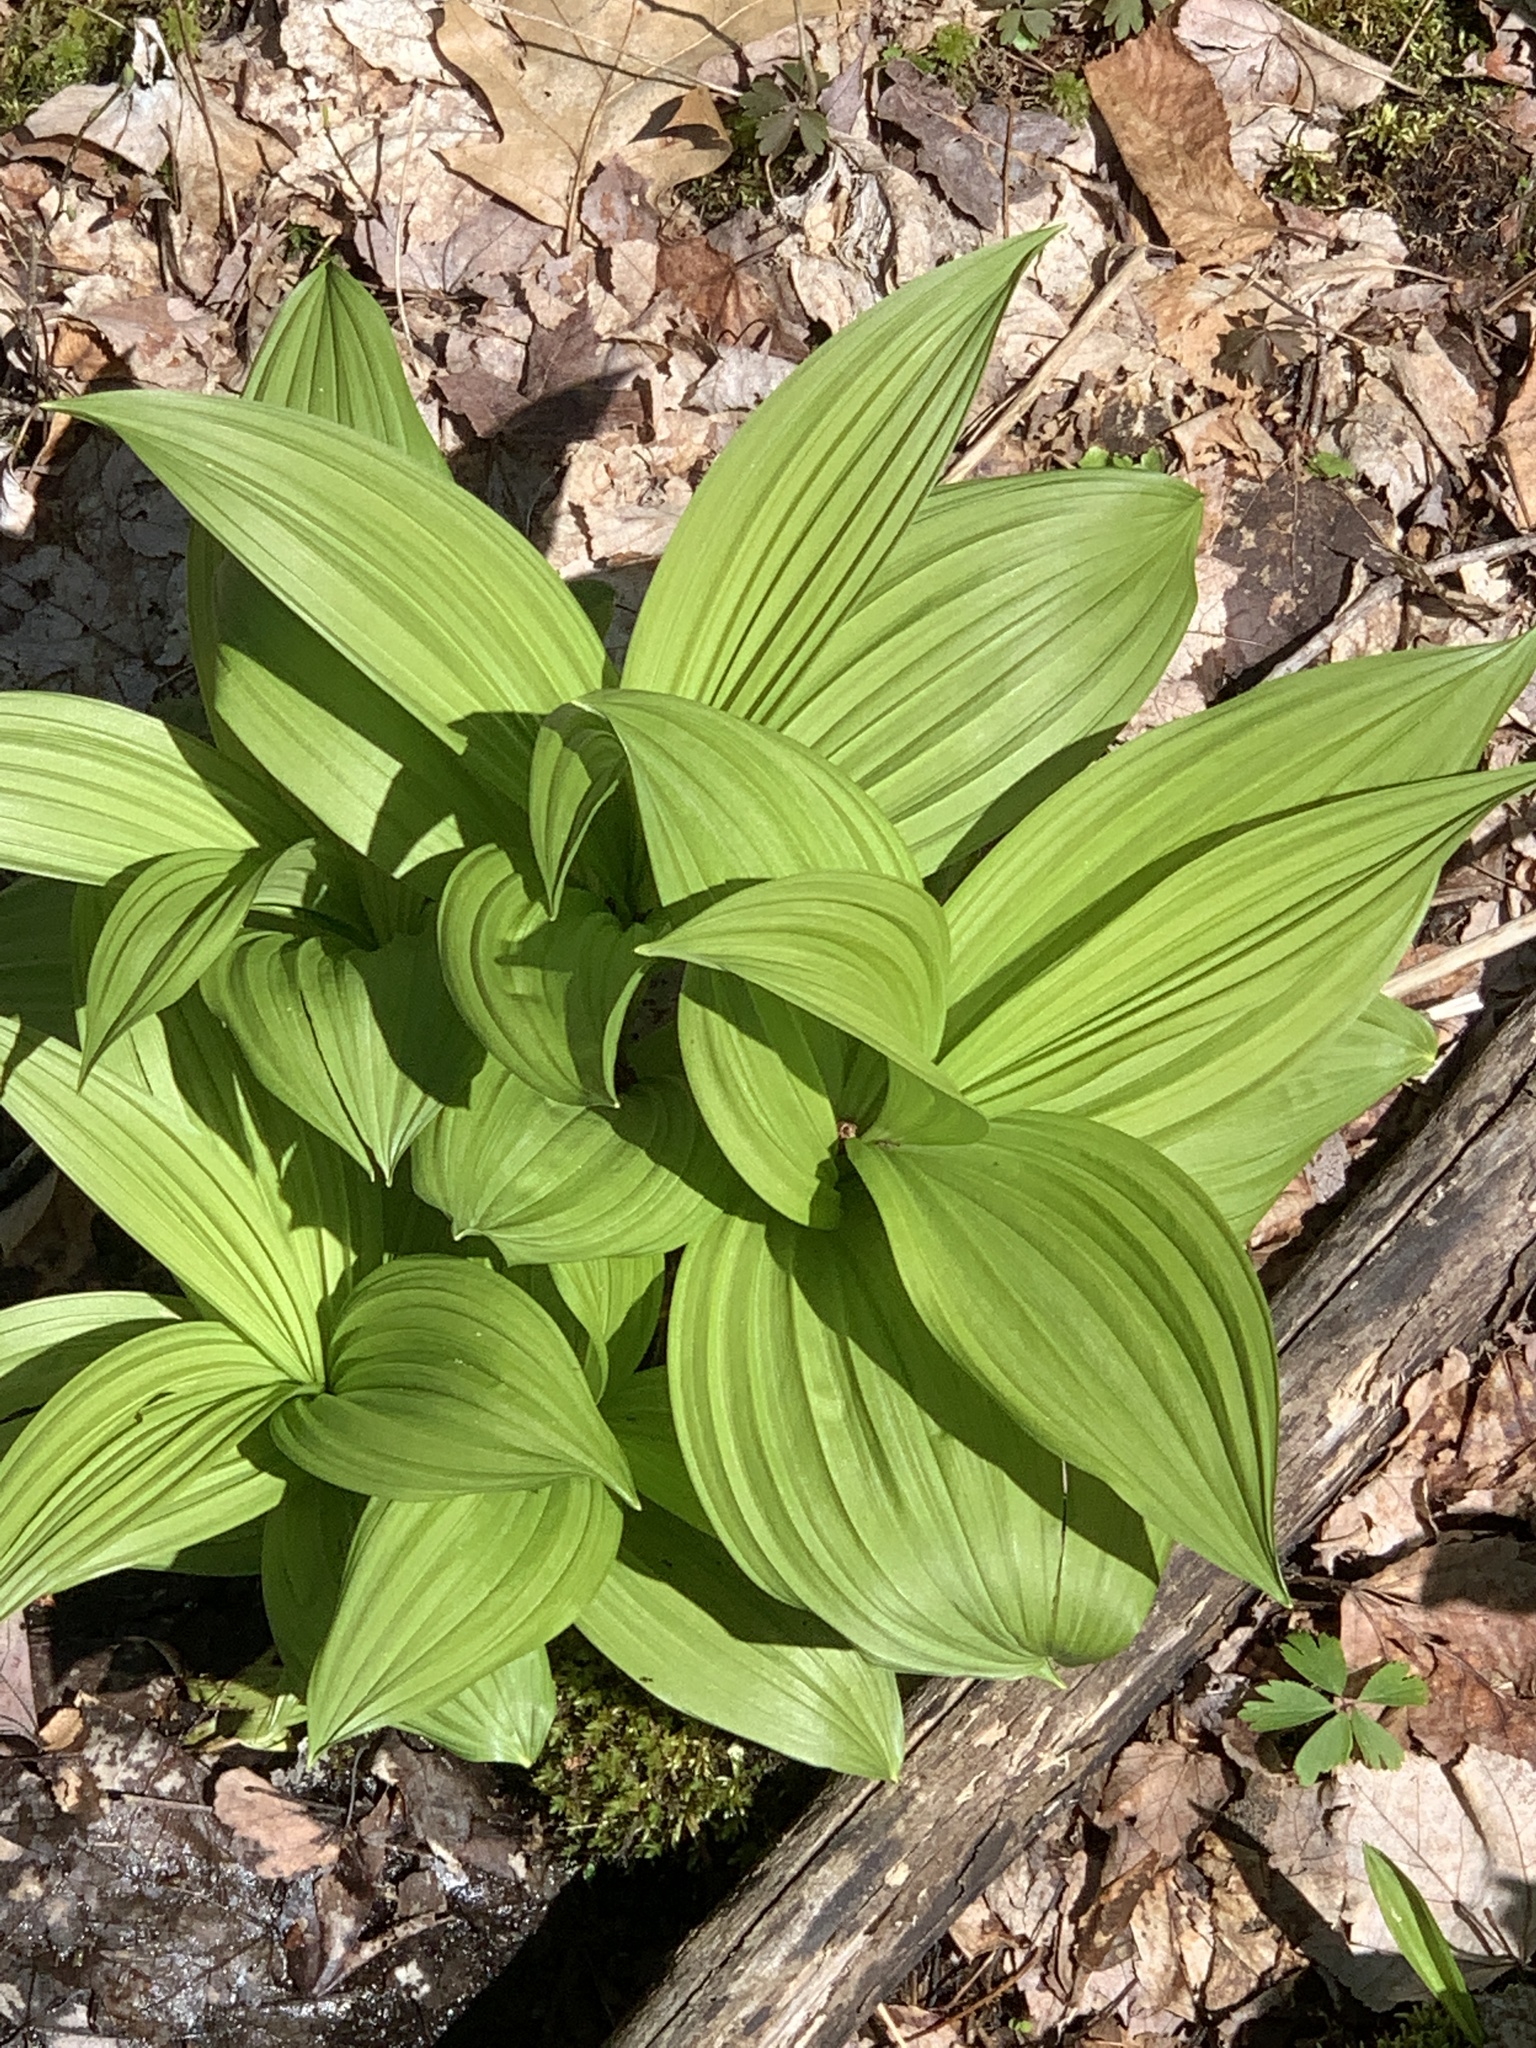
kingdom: Plantae
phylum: Tracheophyta
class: Liliopsida
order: Liliales
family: Melanthiaceae
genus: Veratrum
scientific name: Veratrum viride
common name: American false hellebore
